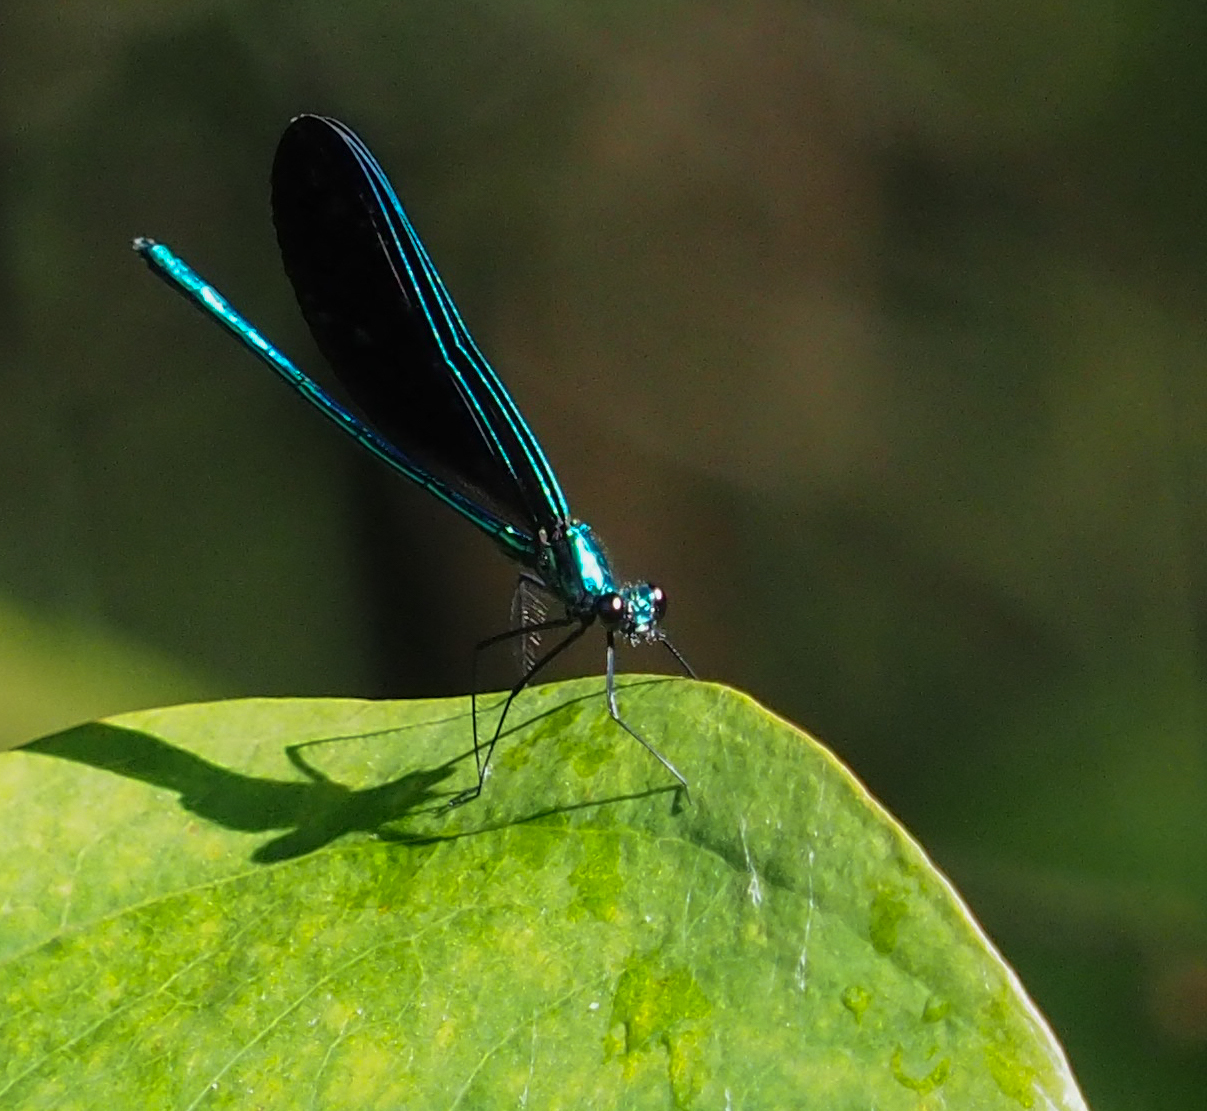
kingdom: Animalia
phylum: Arthropoda
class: Insecta
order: Odonata
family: Calopterygidae
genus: Calopteryx
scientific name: Calopteryx maculata
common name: Ebony jewelwing
